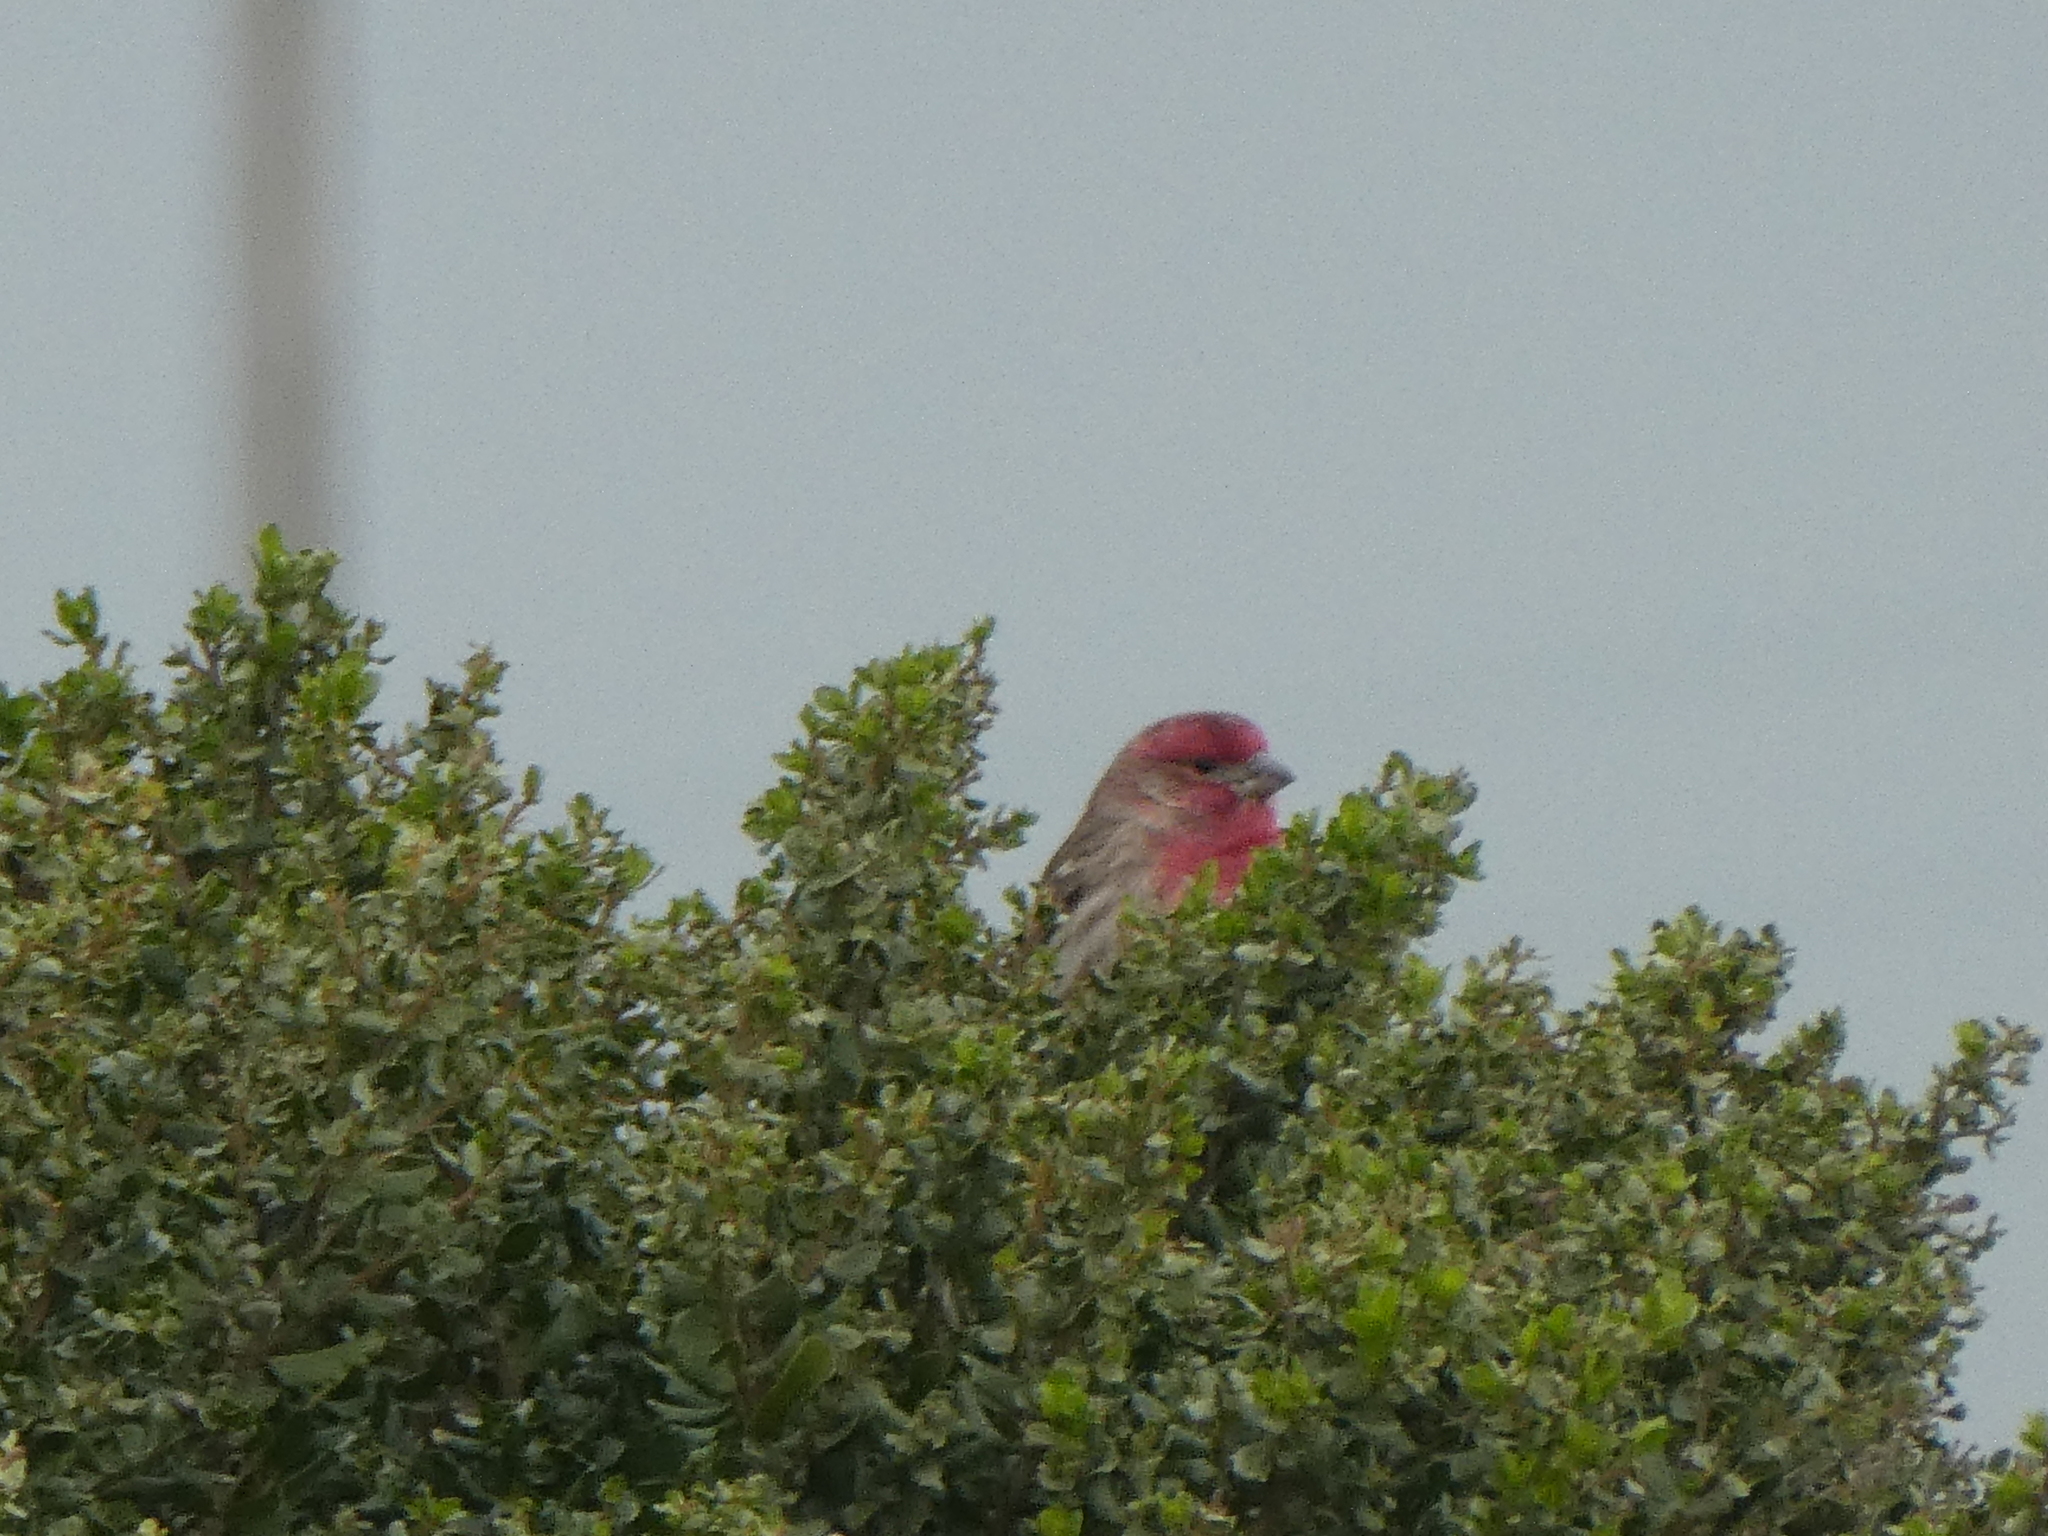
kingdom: Animalia
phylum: Chordata
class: Aves
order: Passeriformes
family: Fringillidae
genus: Haemorhous
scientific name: Haemorhous mexicanus
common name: House finch
